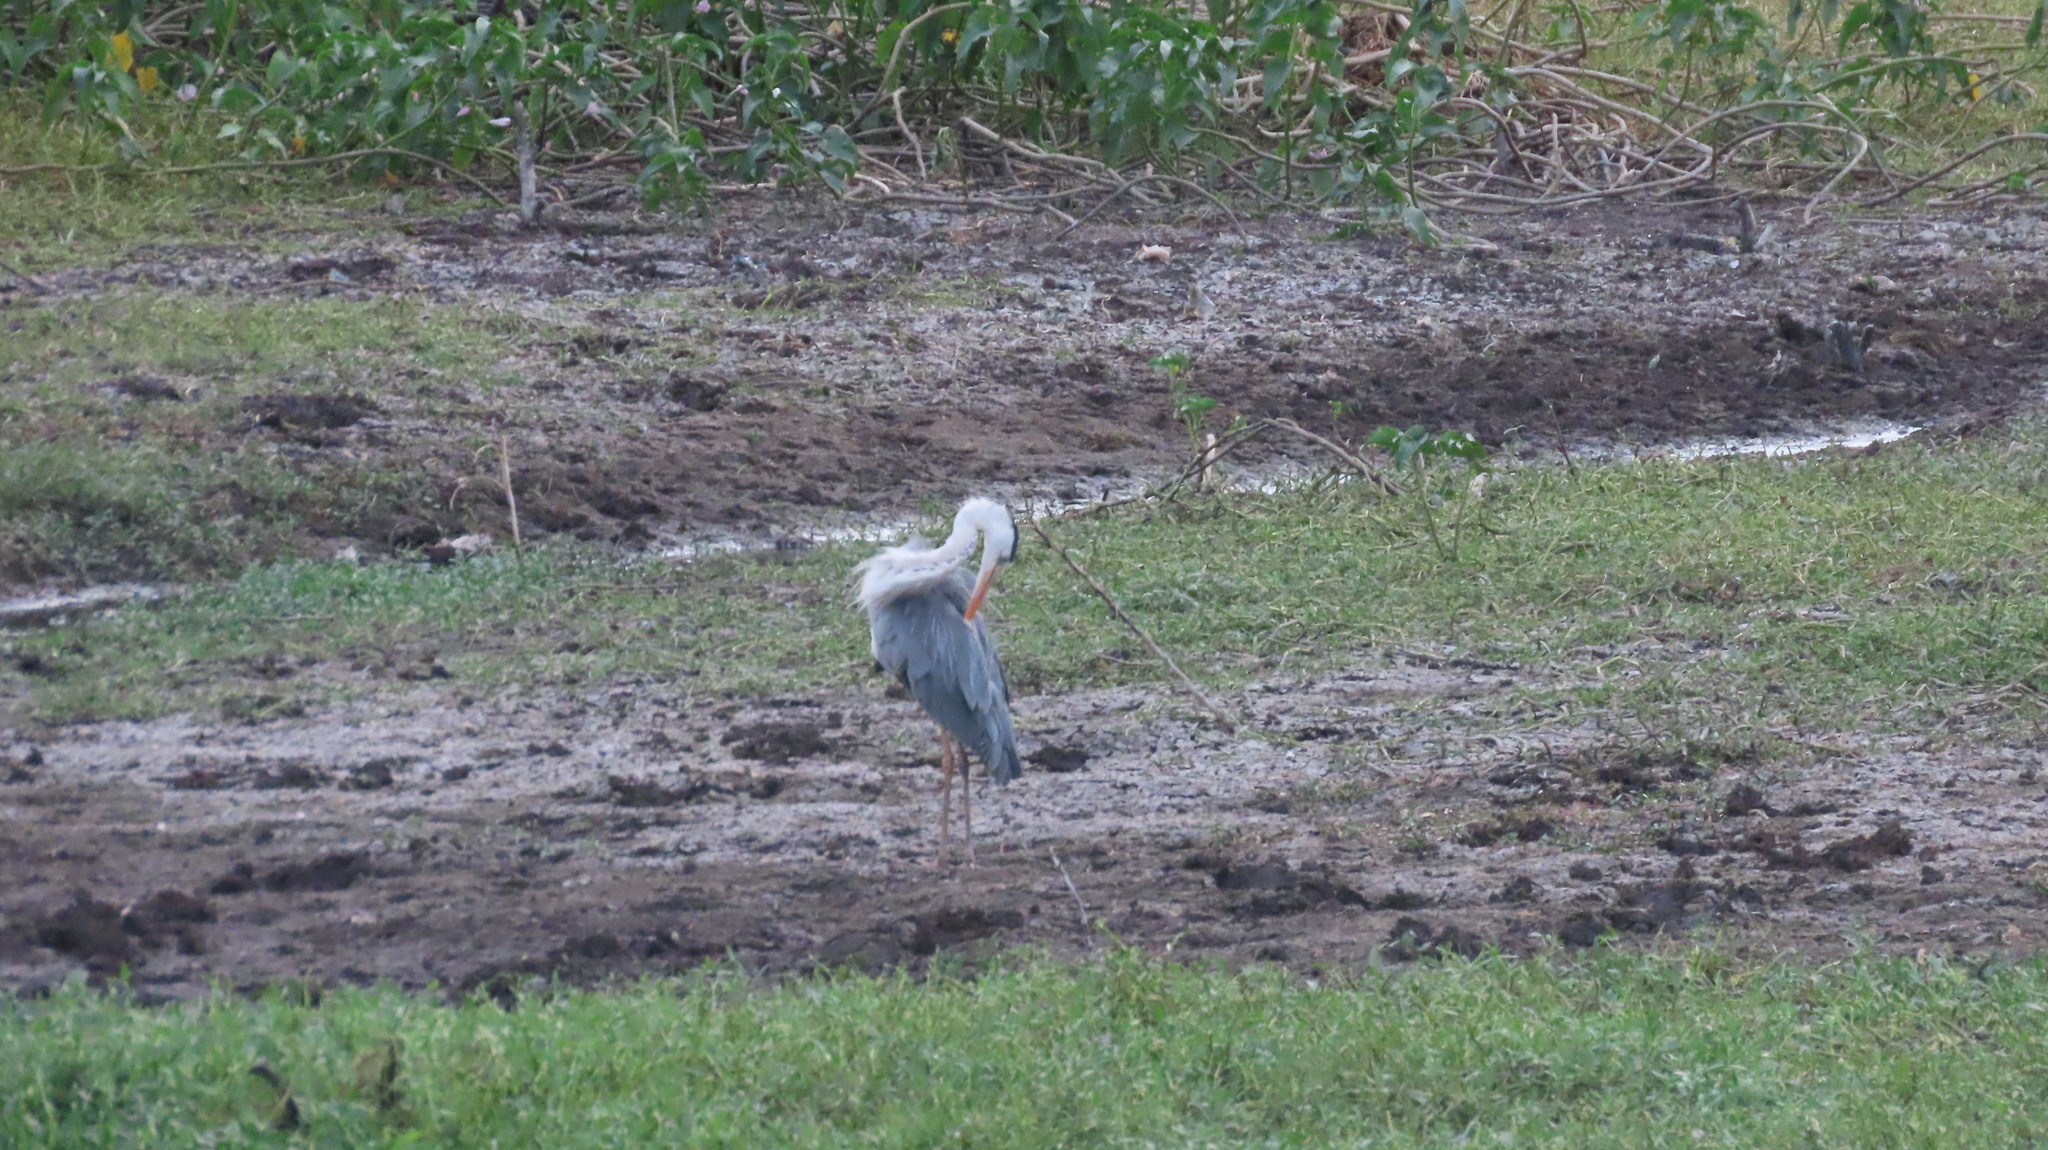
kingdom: Animalia
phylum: Chordata
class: Aves
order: Pelecaniformes
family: Ardeidae
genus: Ardea
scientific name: Ardea cinerea
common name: Grey heron
